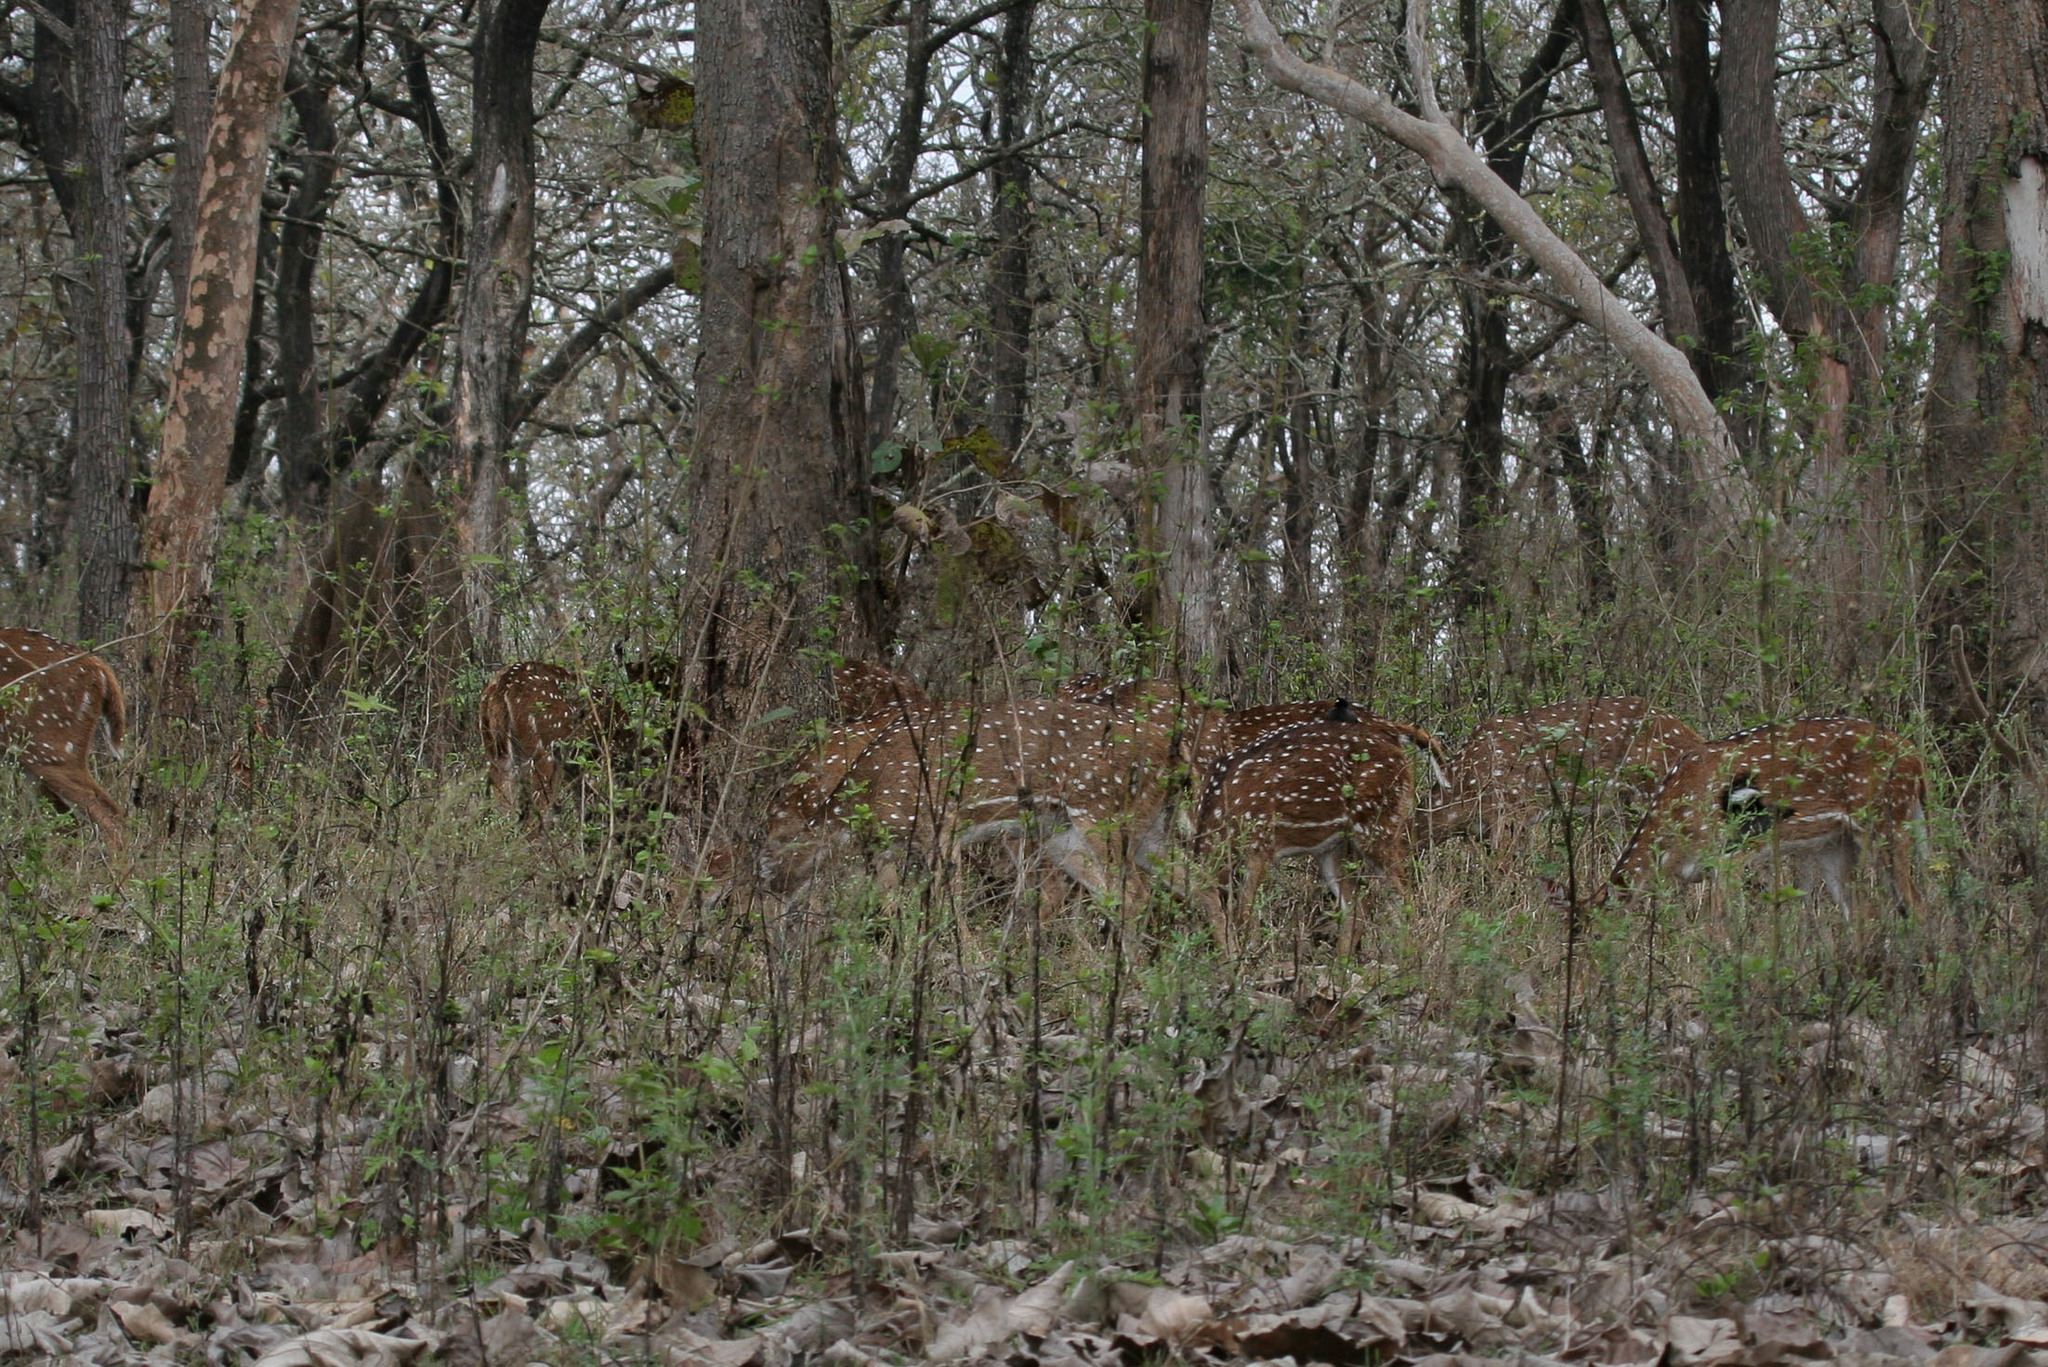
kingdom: Animalia
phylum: Chordata
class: Mammalia
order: Artiodactyla
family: Cervidae
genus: Axis
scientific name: Axis axis
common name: Chital
